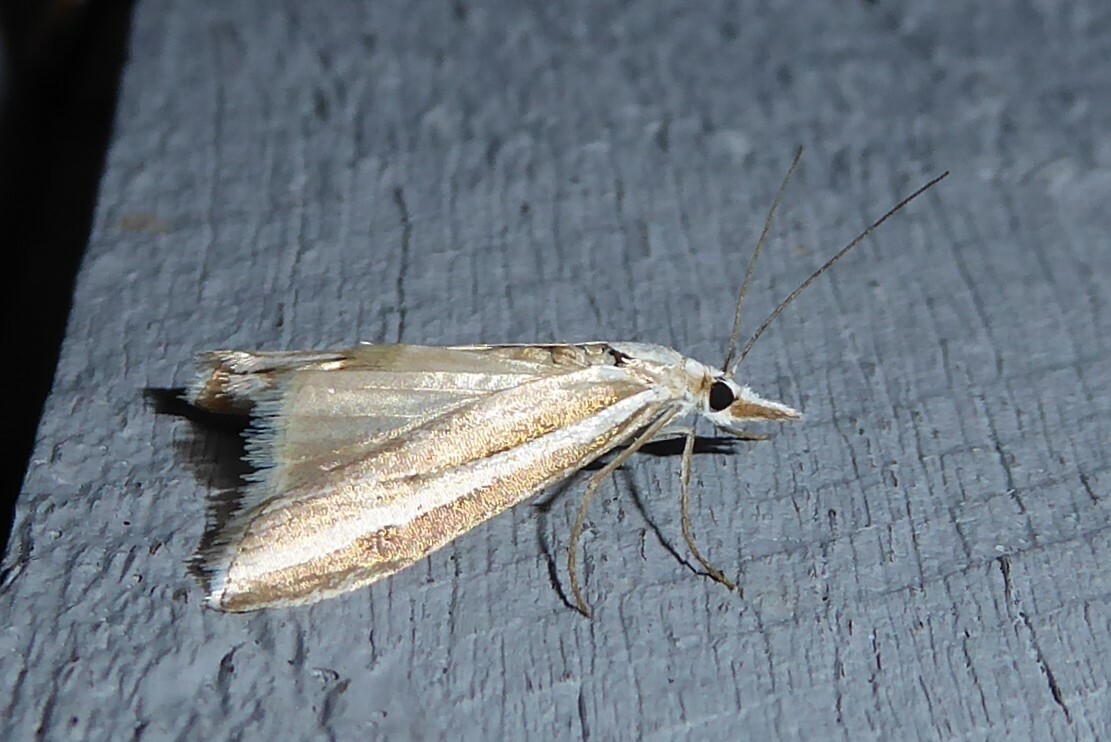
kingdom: Animalia
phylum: Arthropoda
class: Insecta
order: Lepidoptera
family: Crambidae
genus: Orocrambus
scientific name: Orocrambus vittellus
